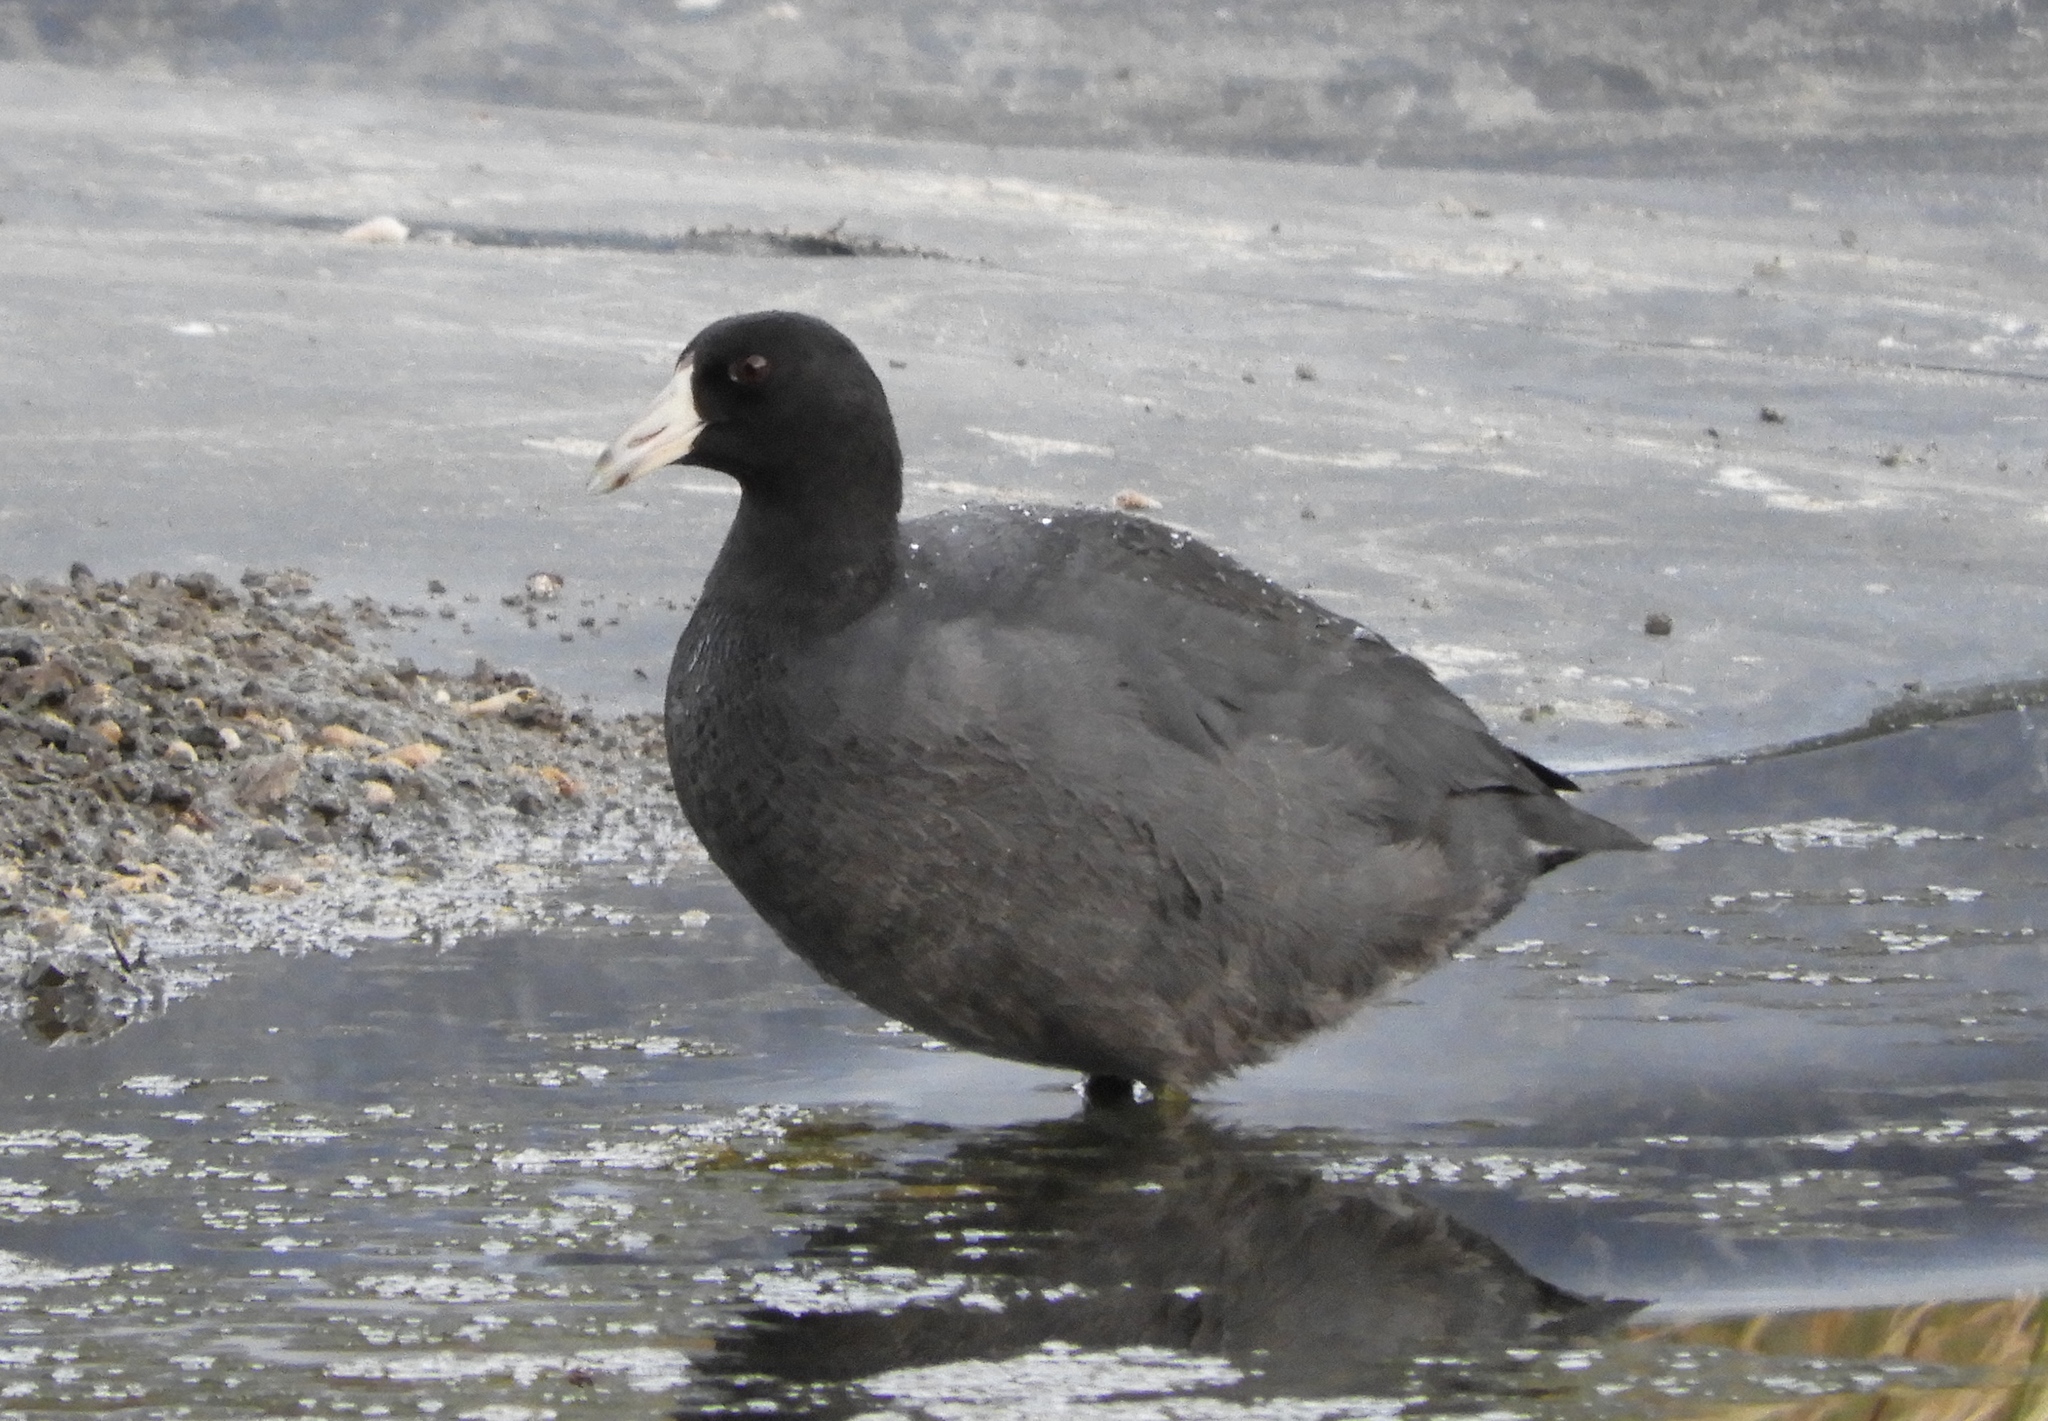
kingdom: Animalia
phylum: Chordata
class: Aves
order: Gruiformes
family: Rallidae
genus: Fulica
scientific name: Fulica americana
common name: American coot
